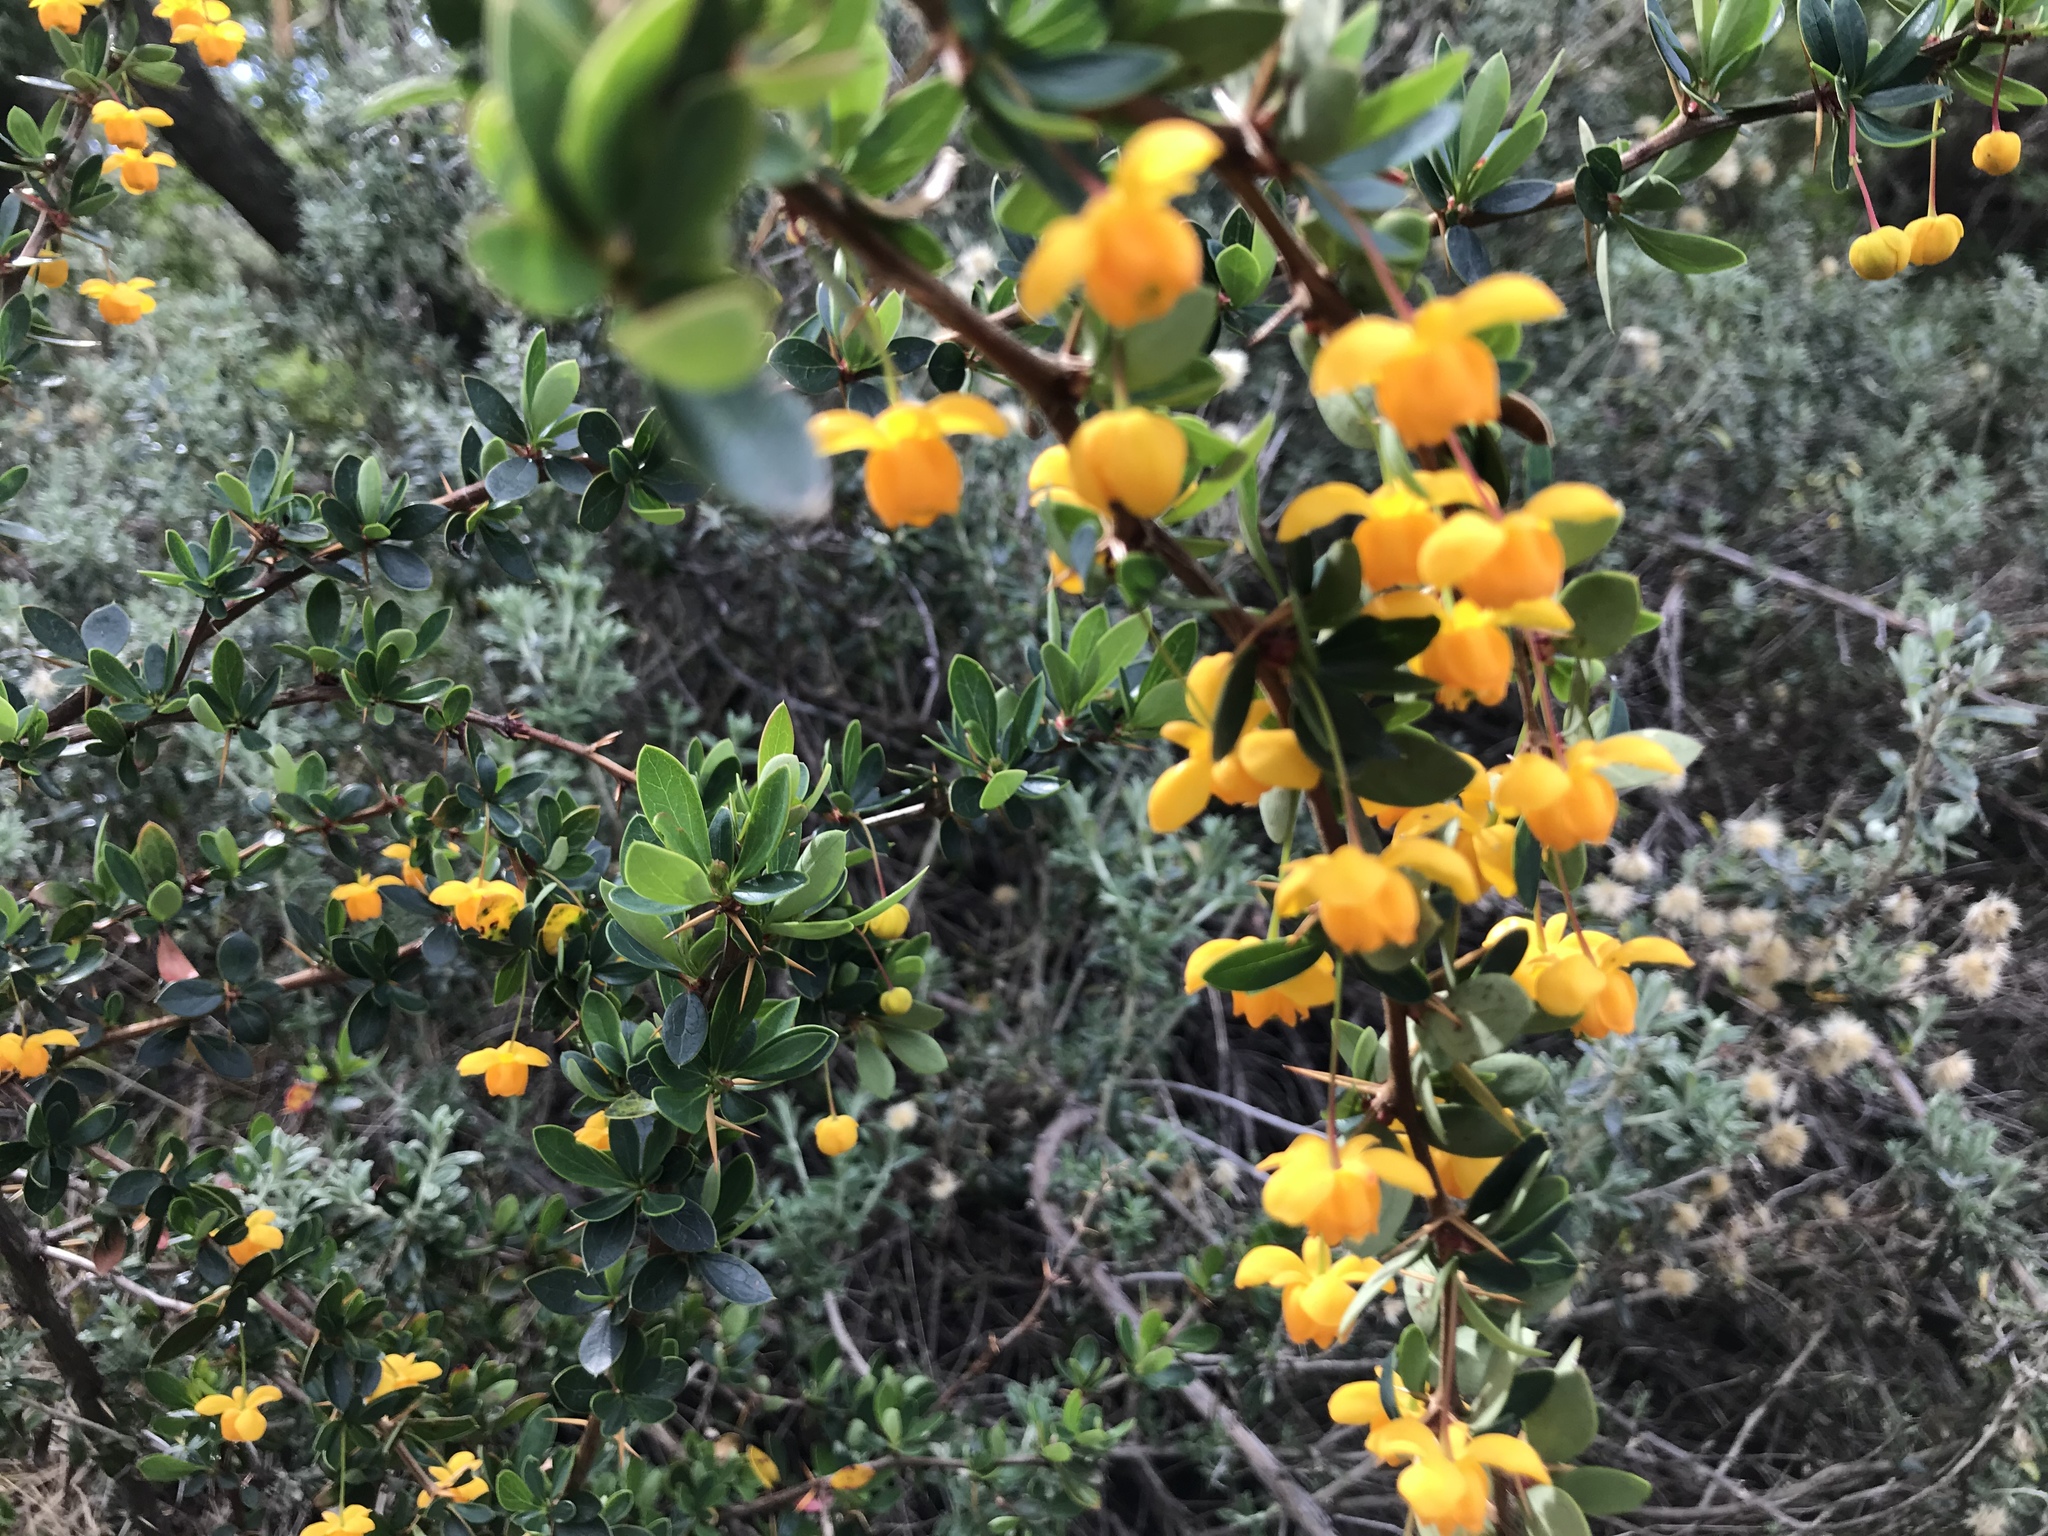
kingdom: Plantae
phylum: Tracheophyta
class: Magnoliopsida
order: Ranunculales
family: Berberidaceae
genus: Berberis
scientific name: Berberis microphylla
